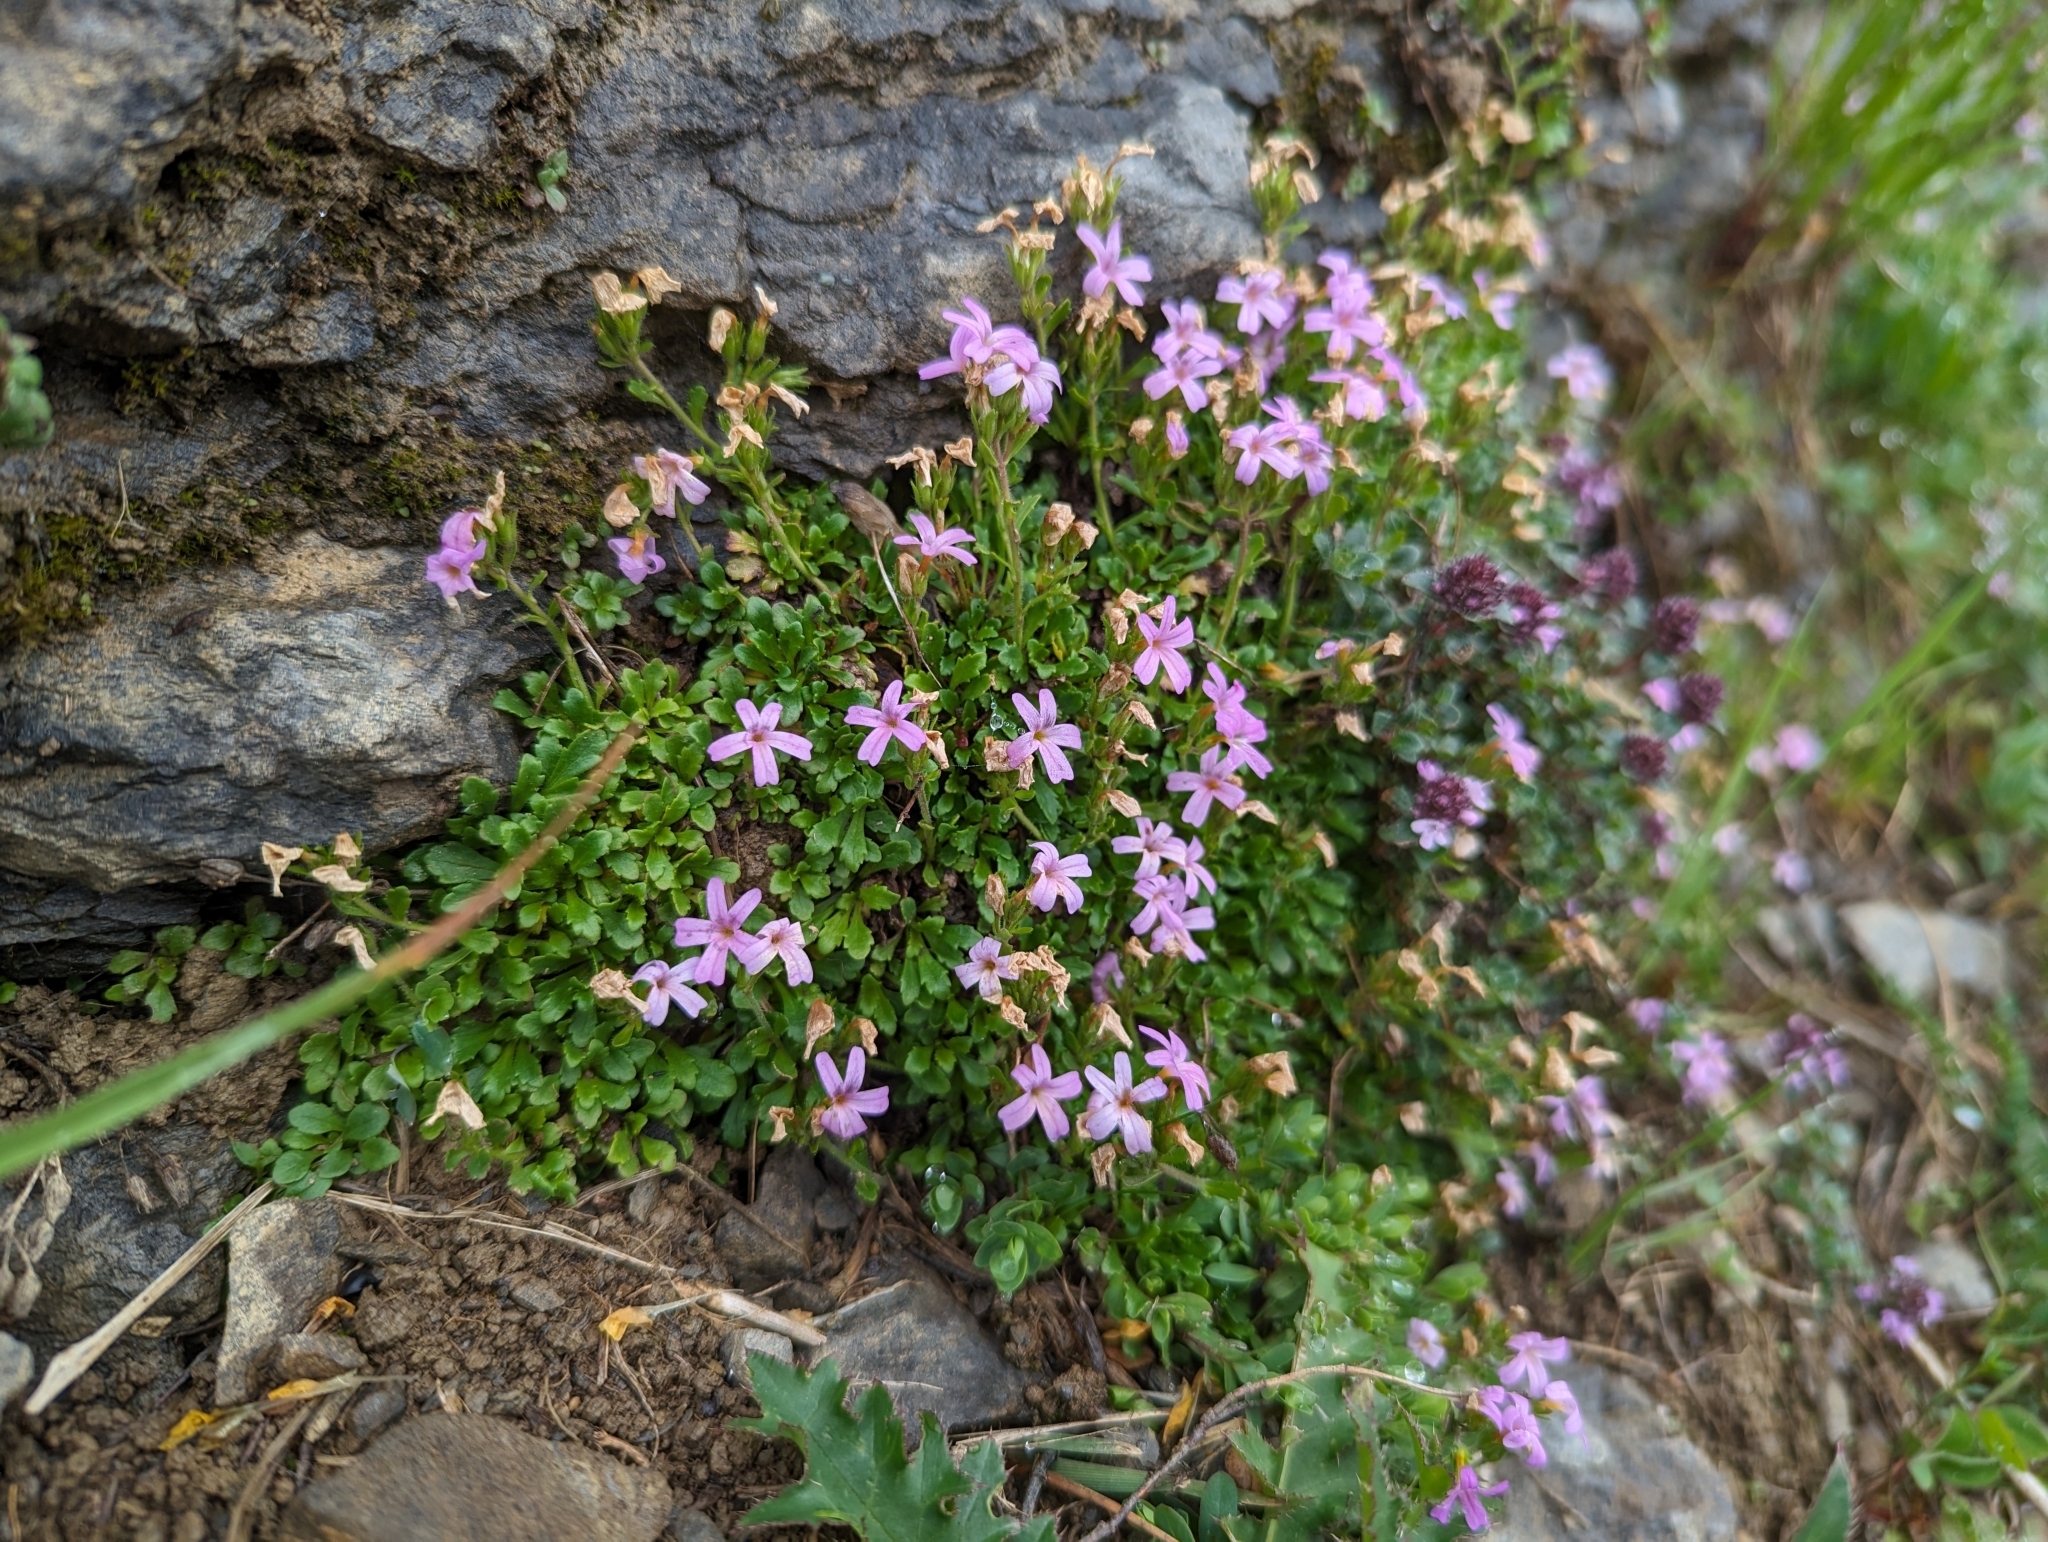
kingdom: Plantae
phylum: Tracheophyta
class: Magnoliopsida
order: Lamiales
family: Plantaginaceae
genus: Erinus
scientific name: Erinus alpinus
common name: Fairy foxglove
